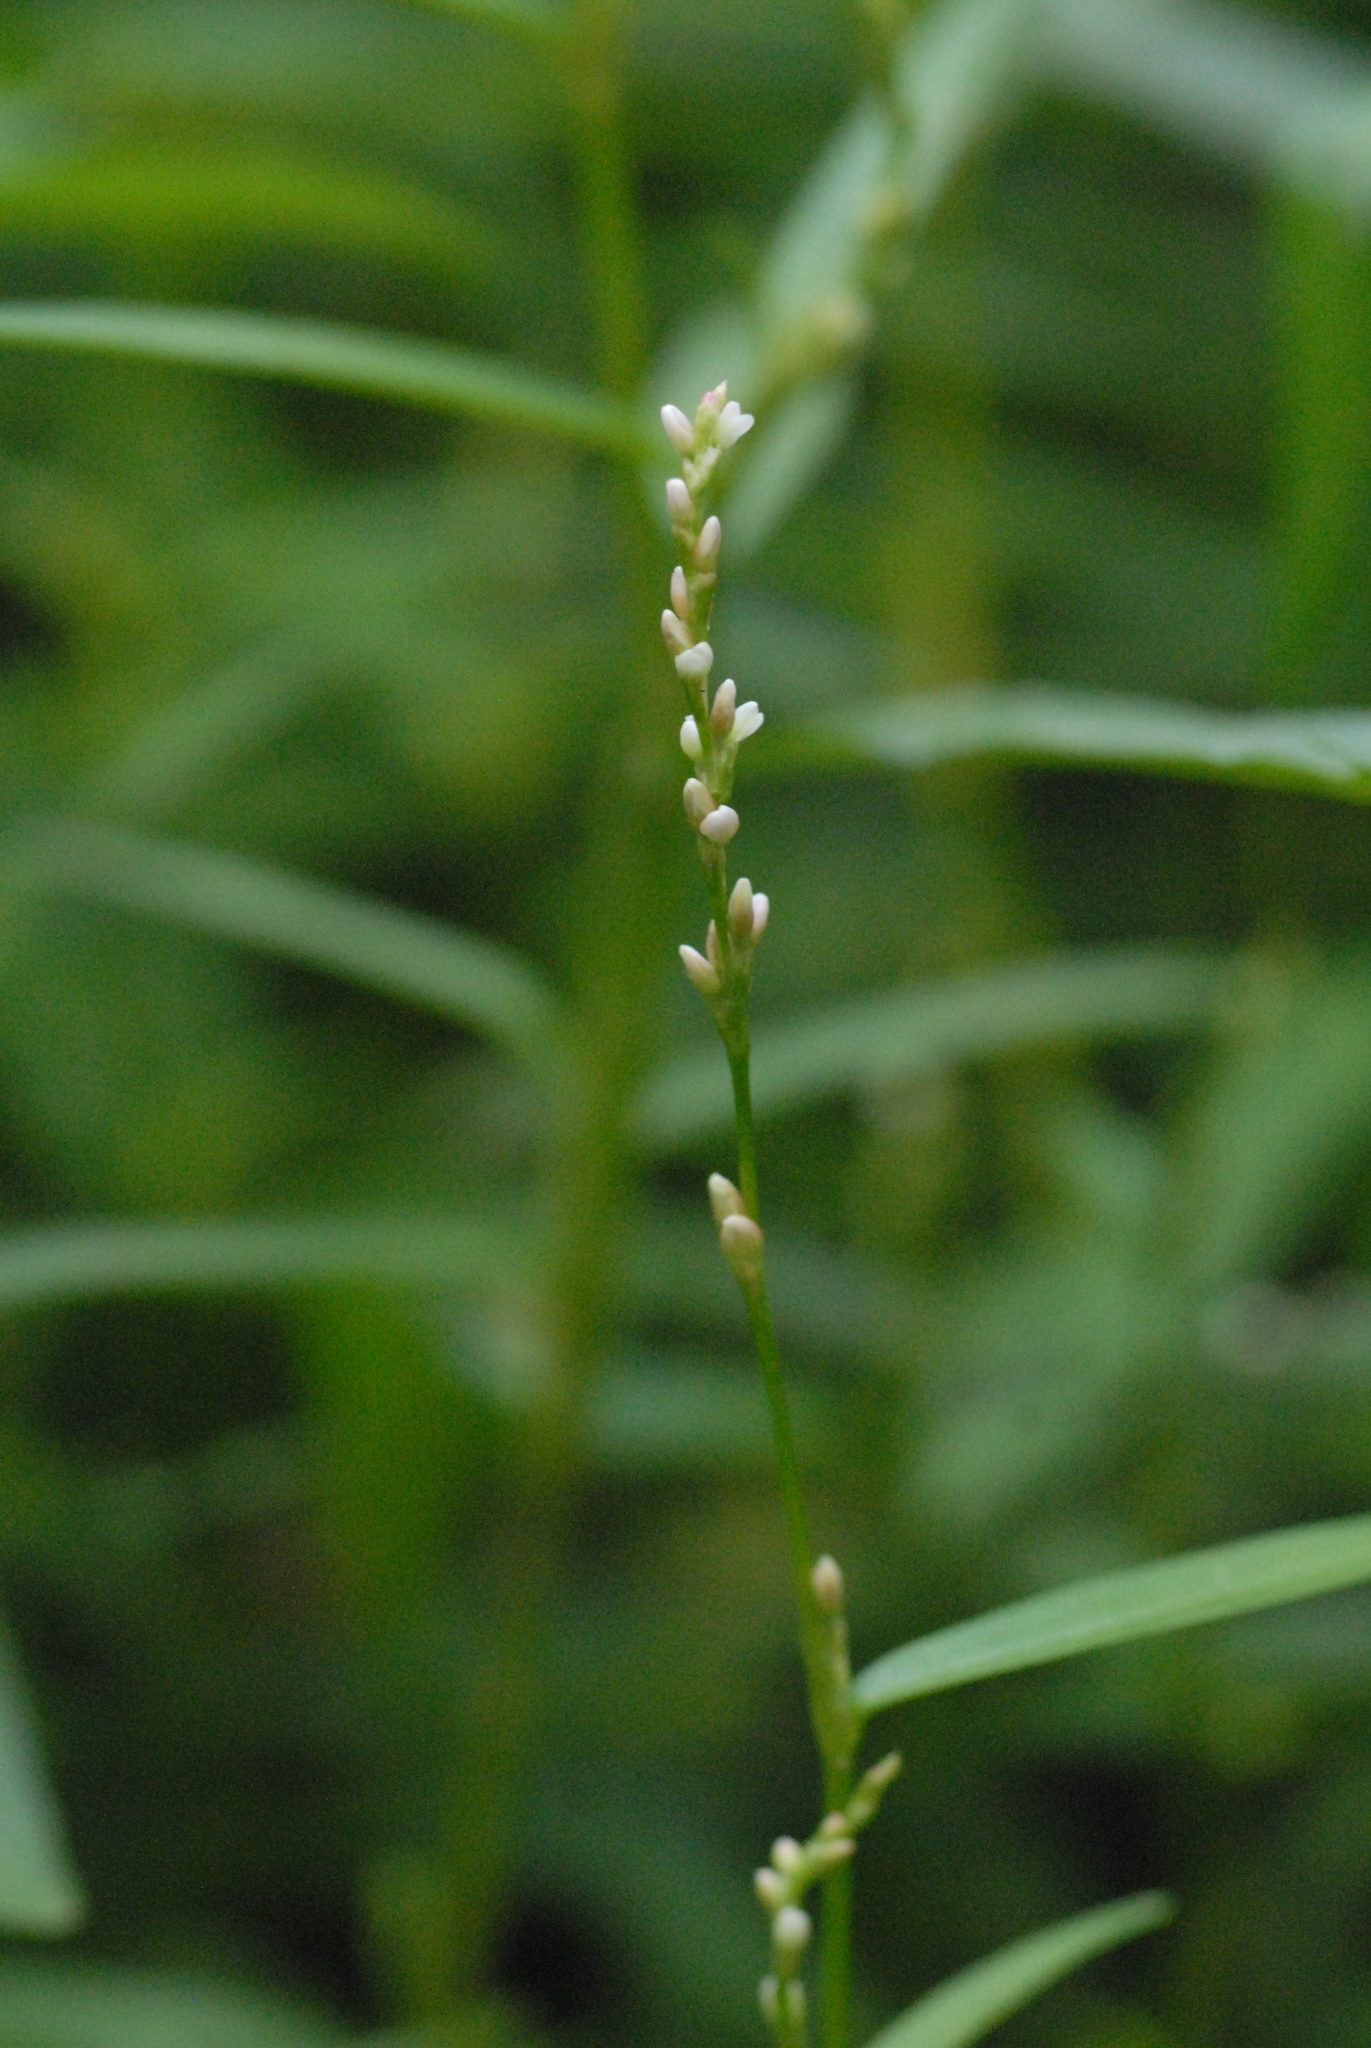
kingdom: Plantae
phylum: Tracheophyta
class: Magnoliopsida
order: Caryophyllales
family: Polygonaceae
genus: Persicaria
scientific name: Persicaria minor
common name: Small water-pepper
